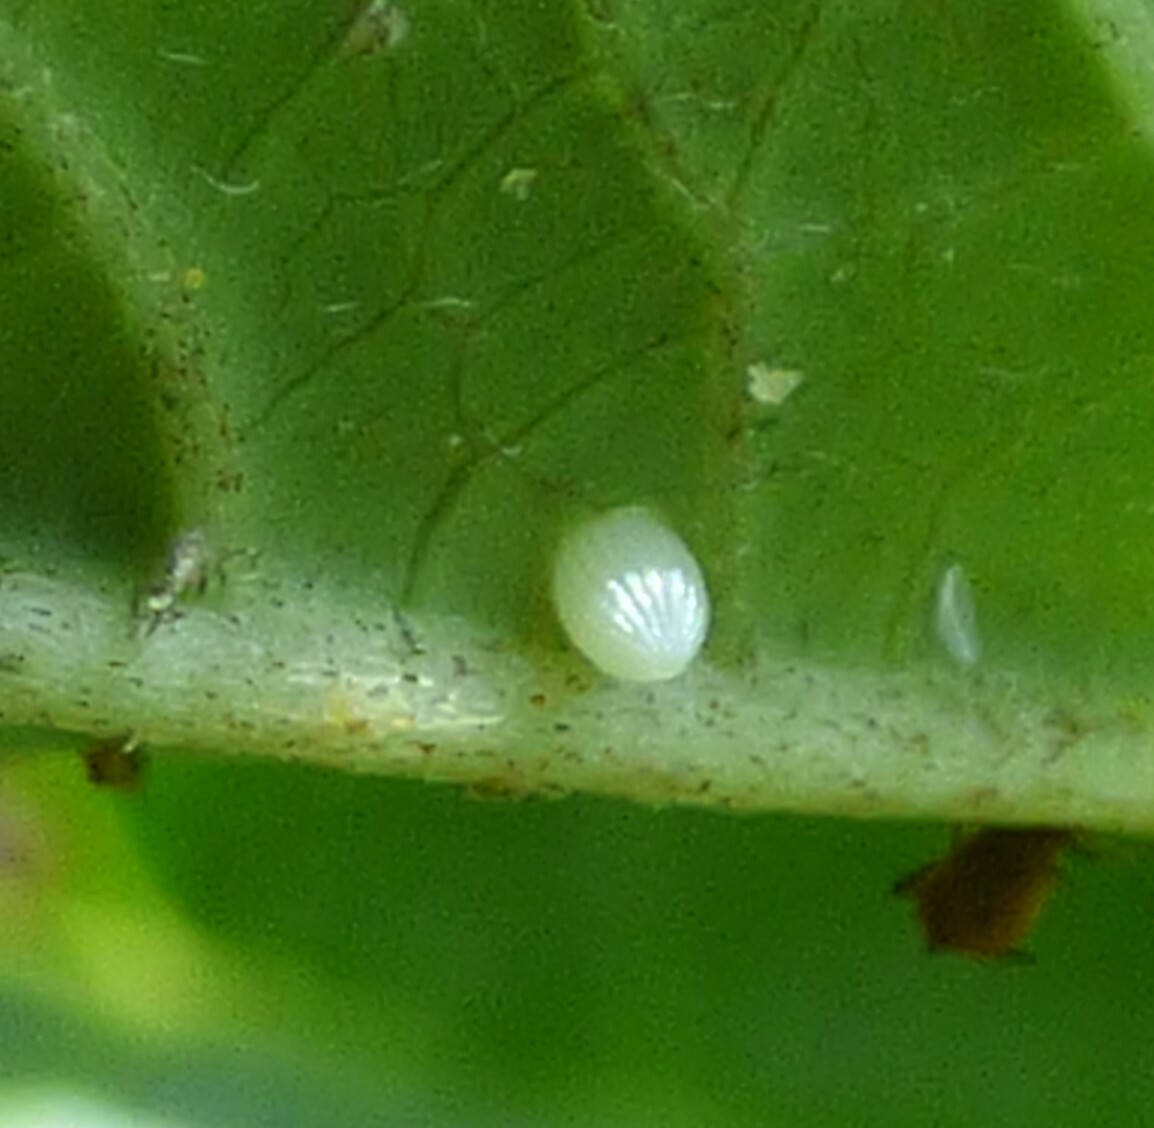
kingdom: Animalia
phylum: Arthropoda
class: Insecta
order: Lepidoptera
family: Nymphalidae
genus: Danaus
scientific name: Danaus plexippus
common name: Monarch
